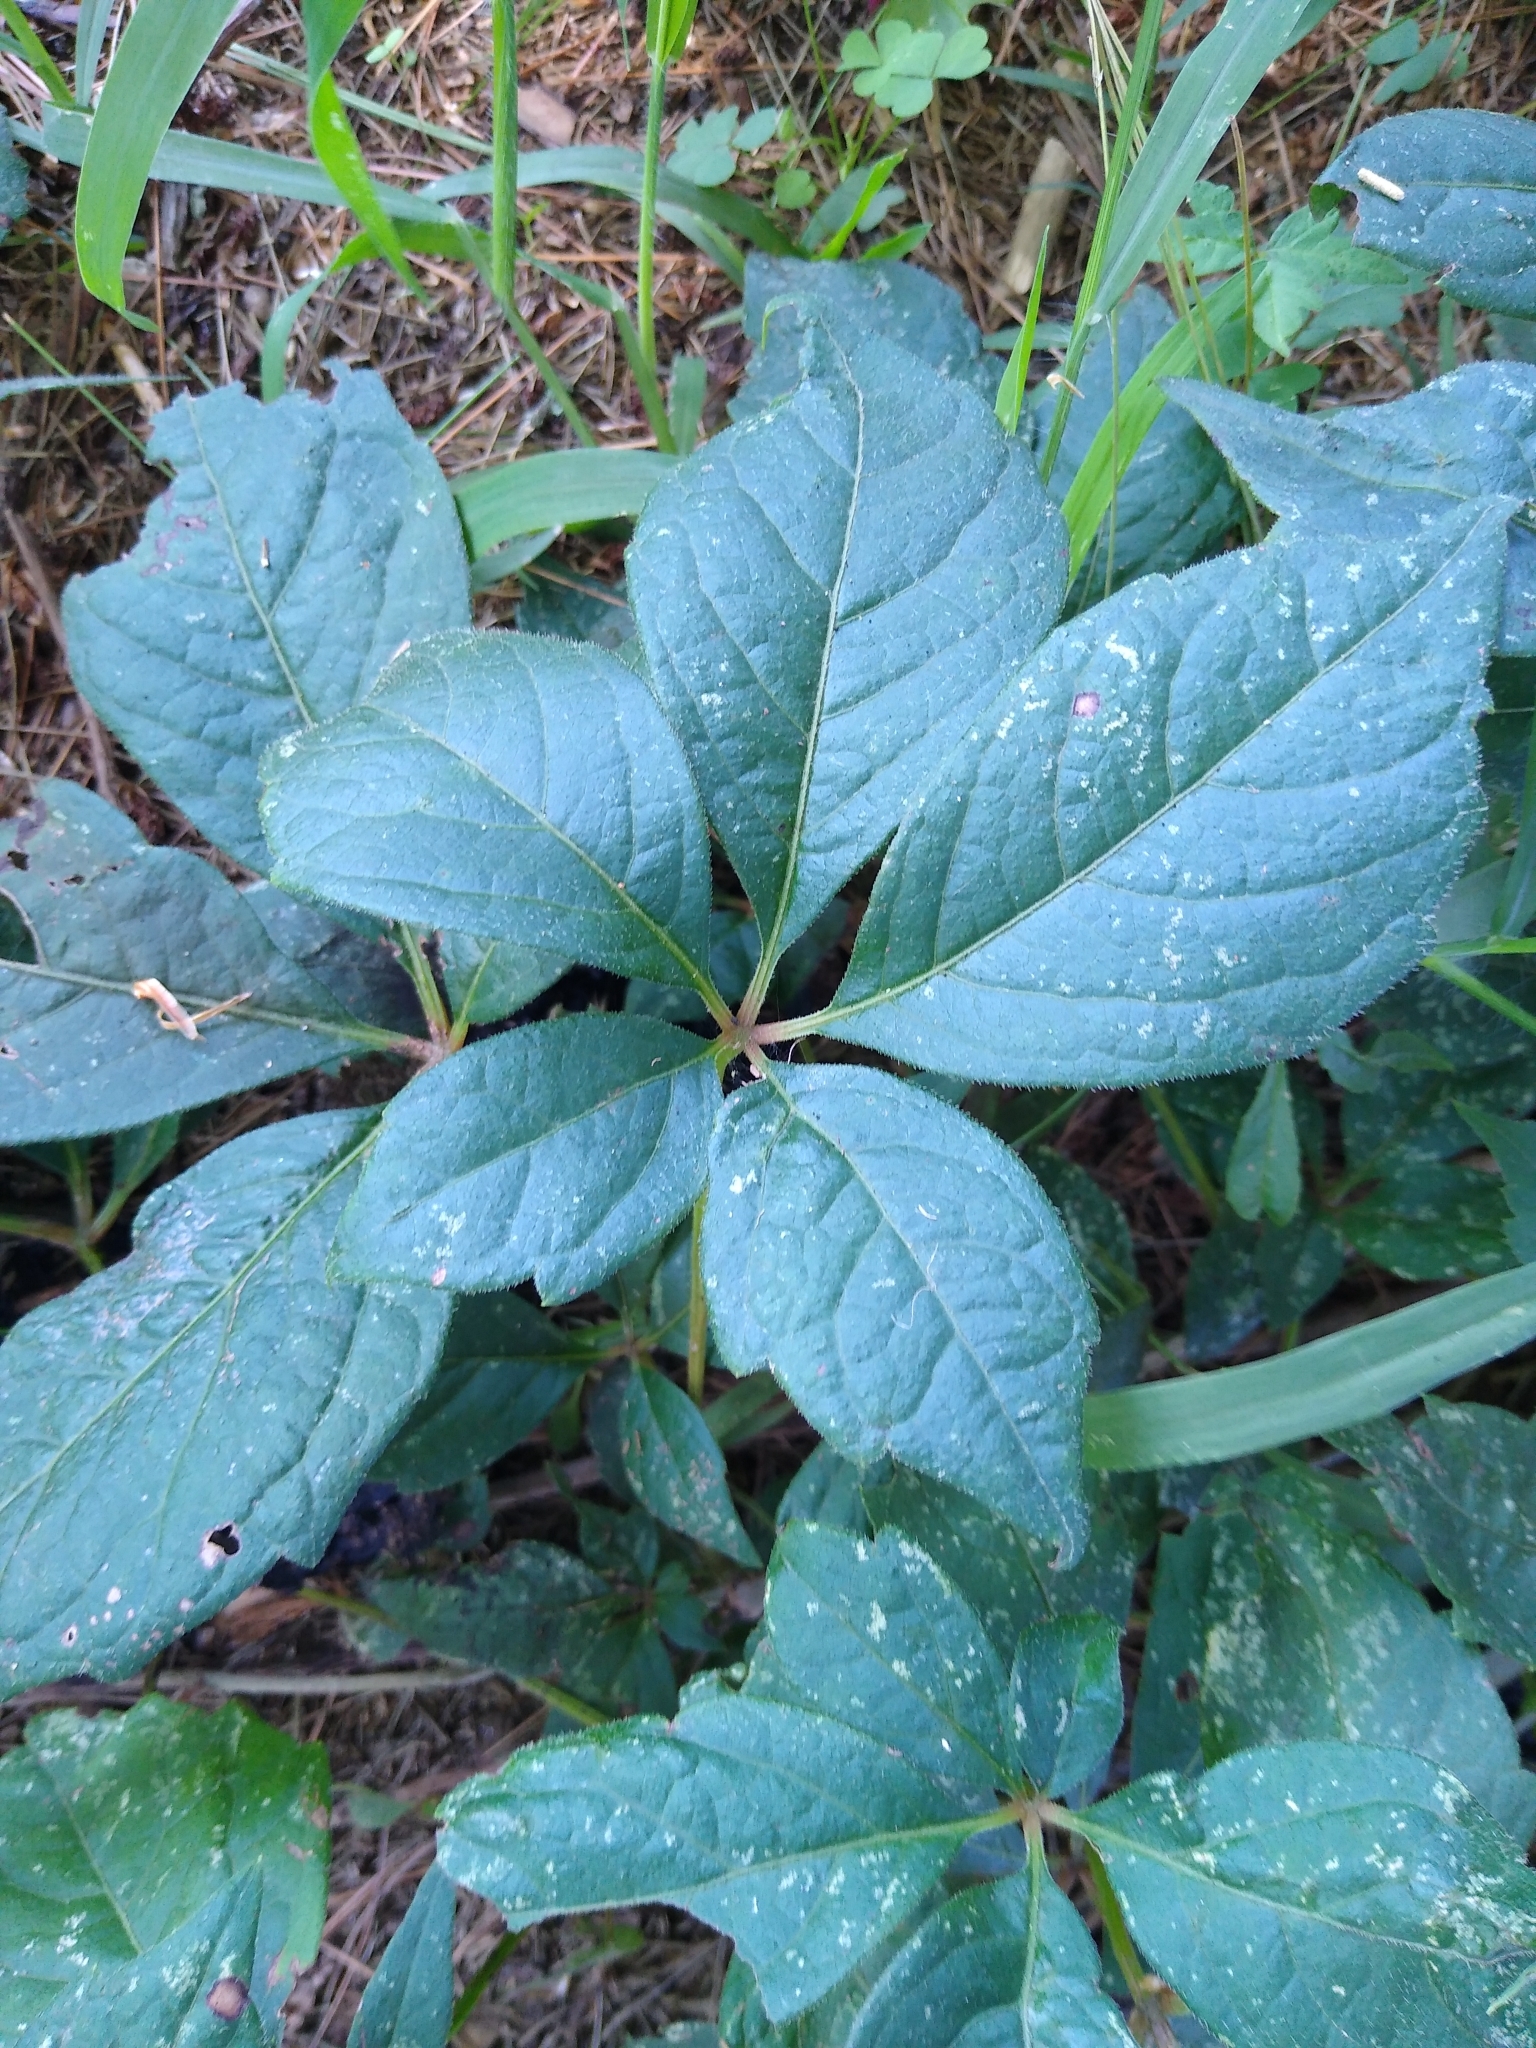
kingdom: Fungi
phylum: Ascomycota
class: Dothideomycetes
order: Mycosphaerellales
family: Mycosphaerellaceae
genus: Cercosporella
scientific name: Cercosporella toxicodendri
